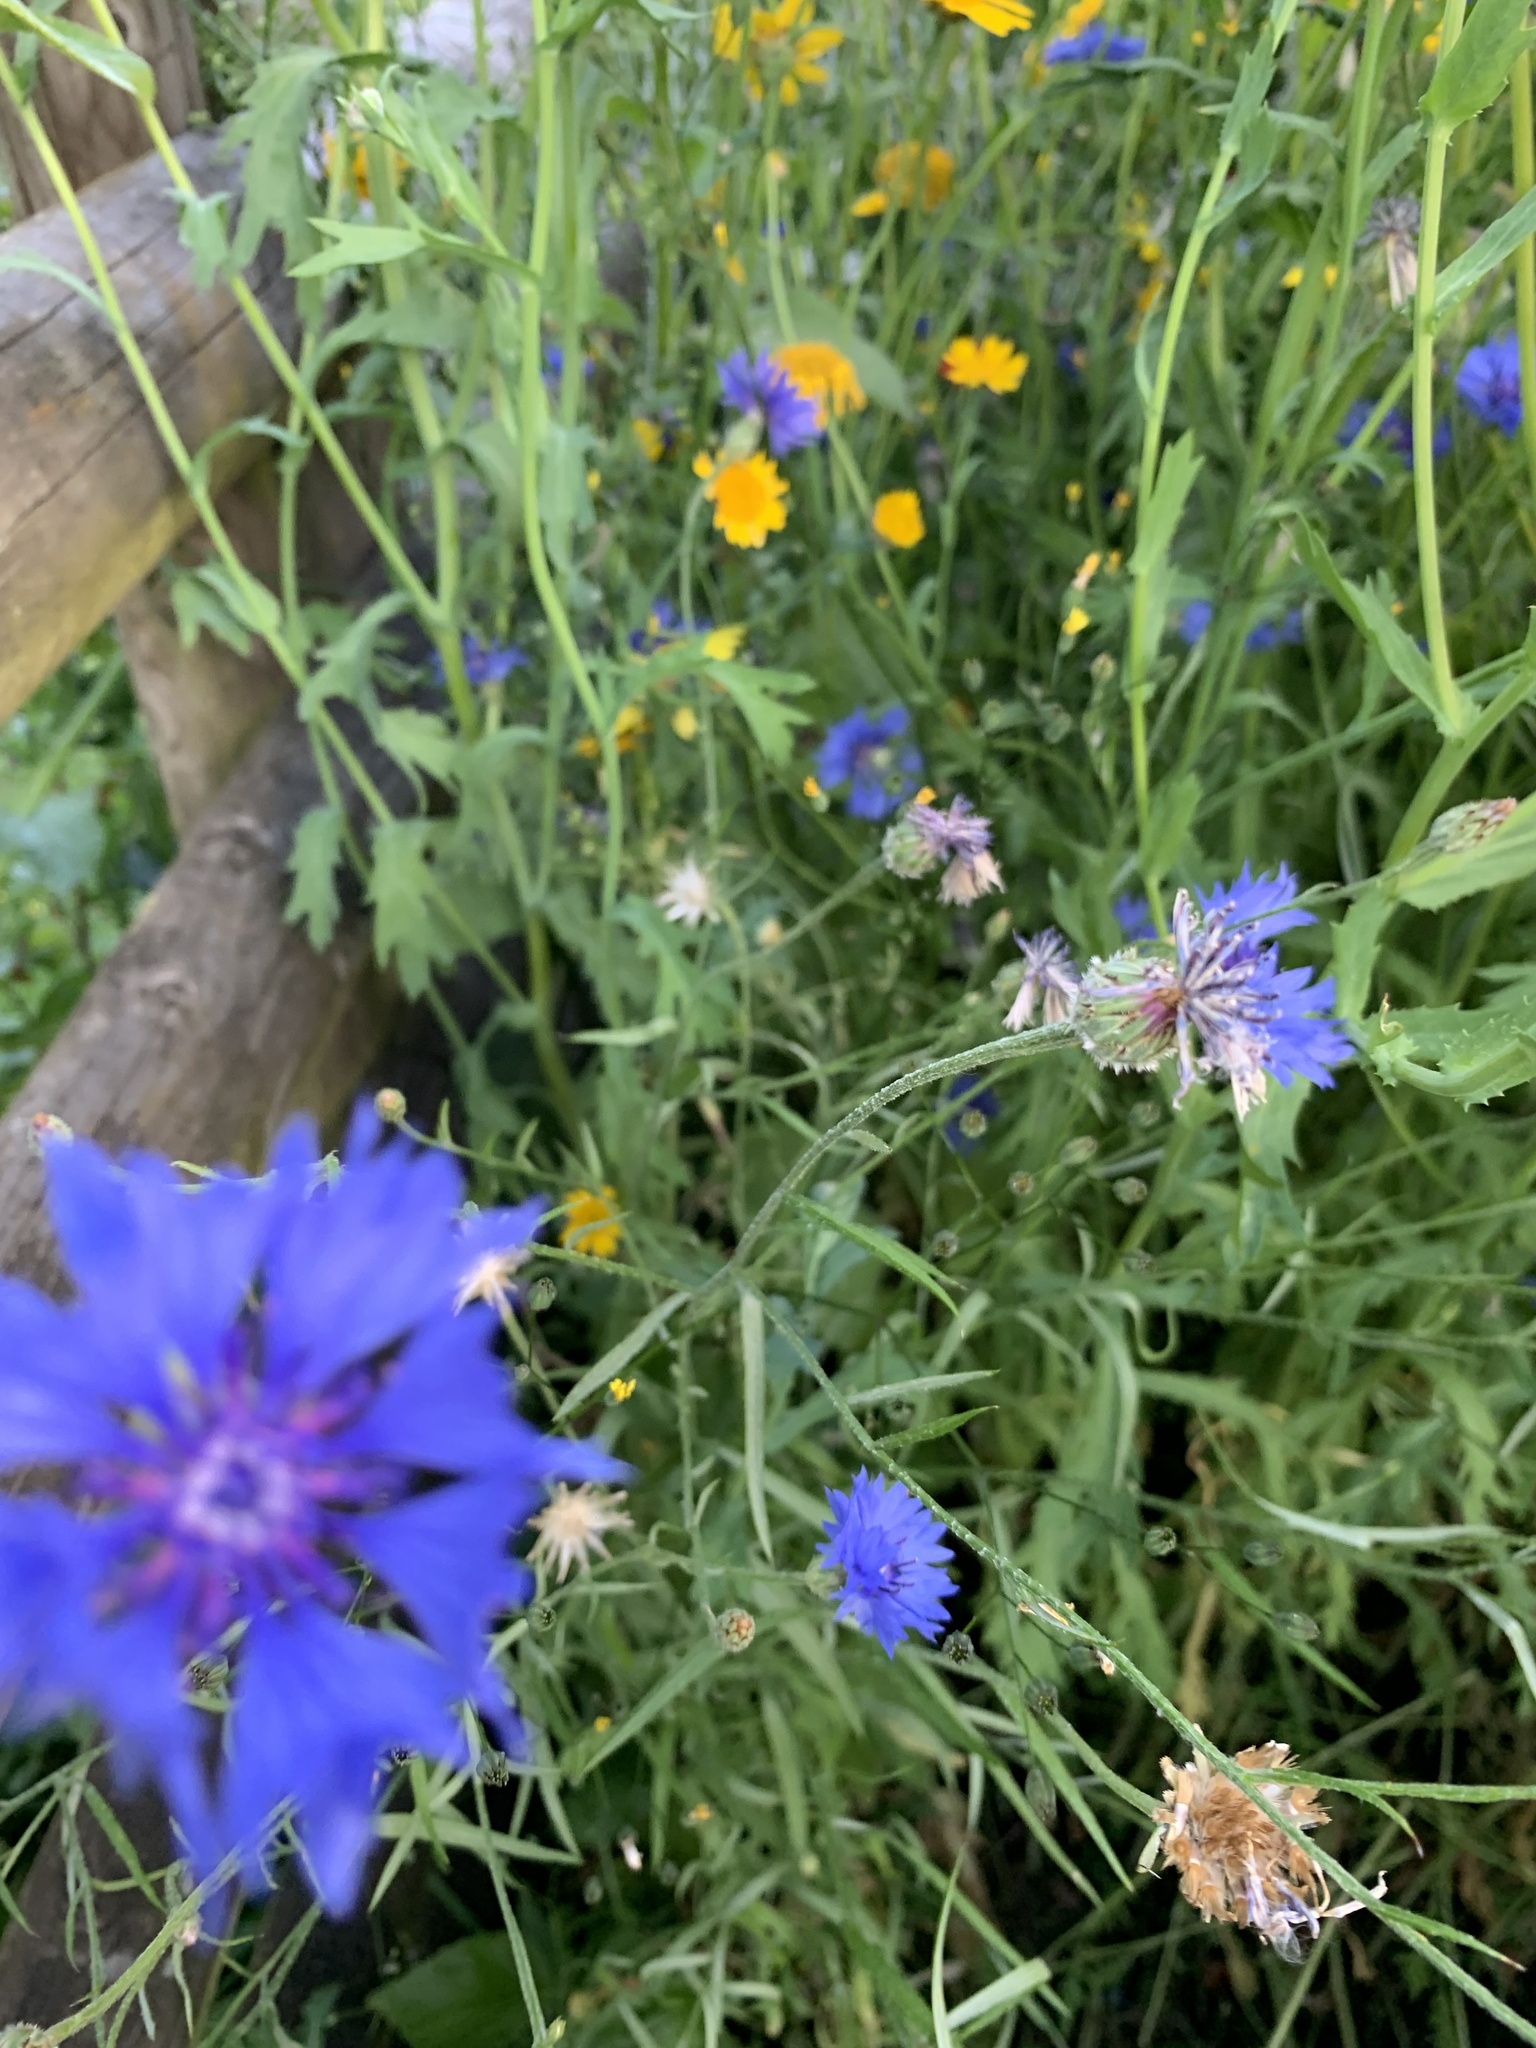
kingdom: Plantae
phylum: Tracheophyta
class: Magnoliopsida
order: Asterales
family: Asteraceae
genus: Centaurea
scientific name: Centaurea cyanus
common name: Cornflower
